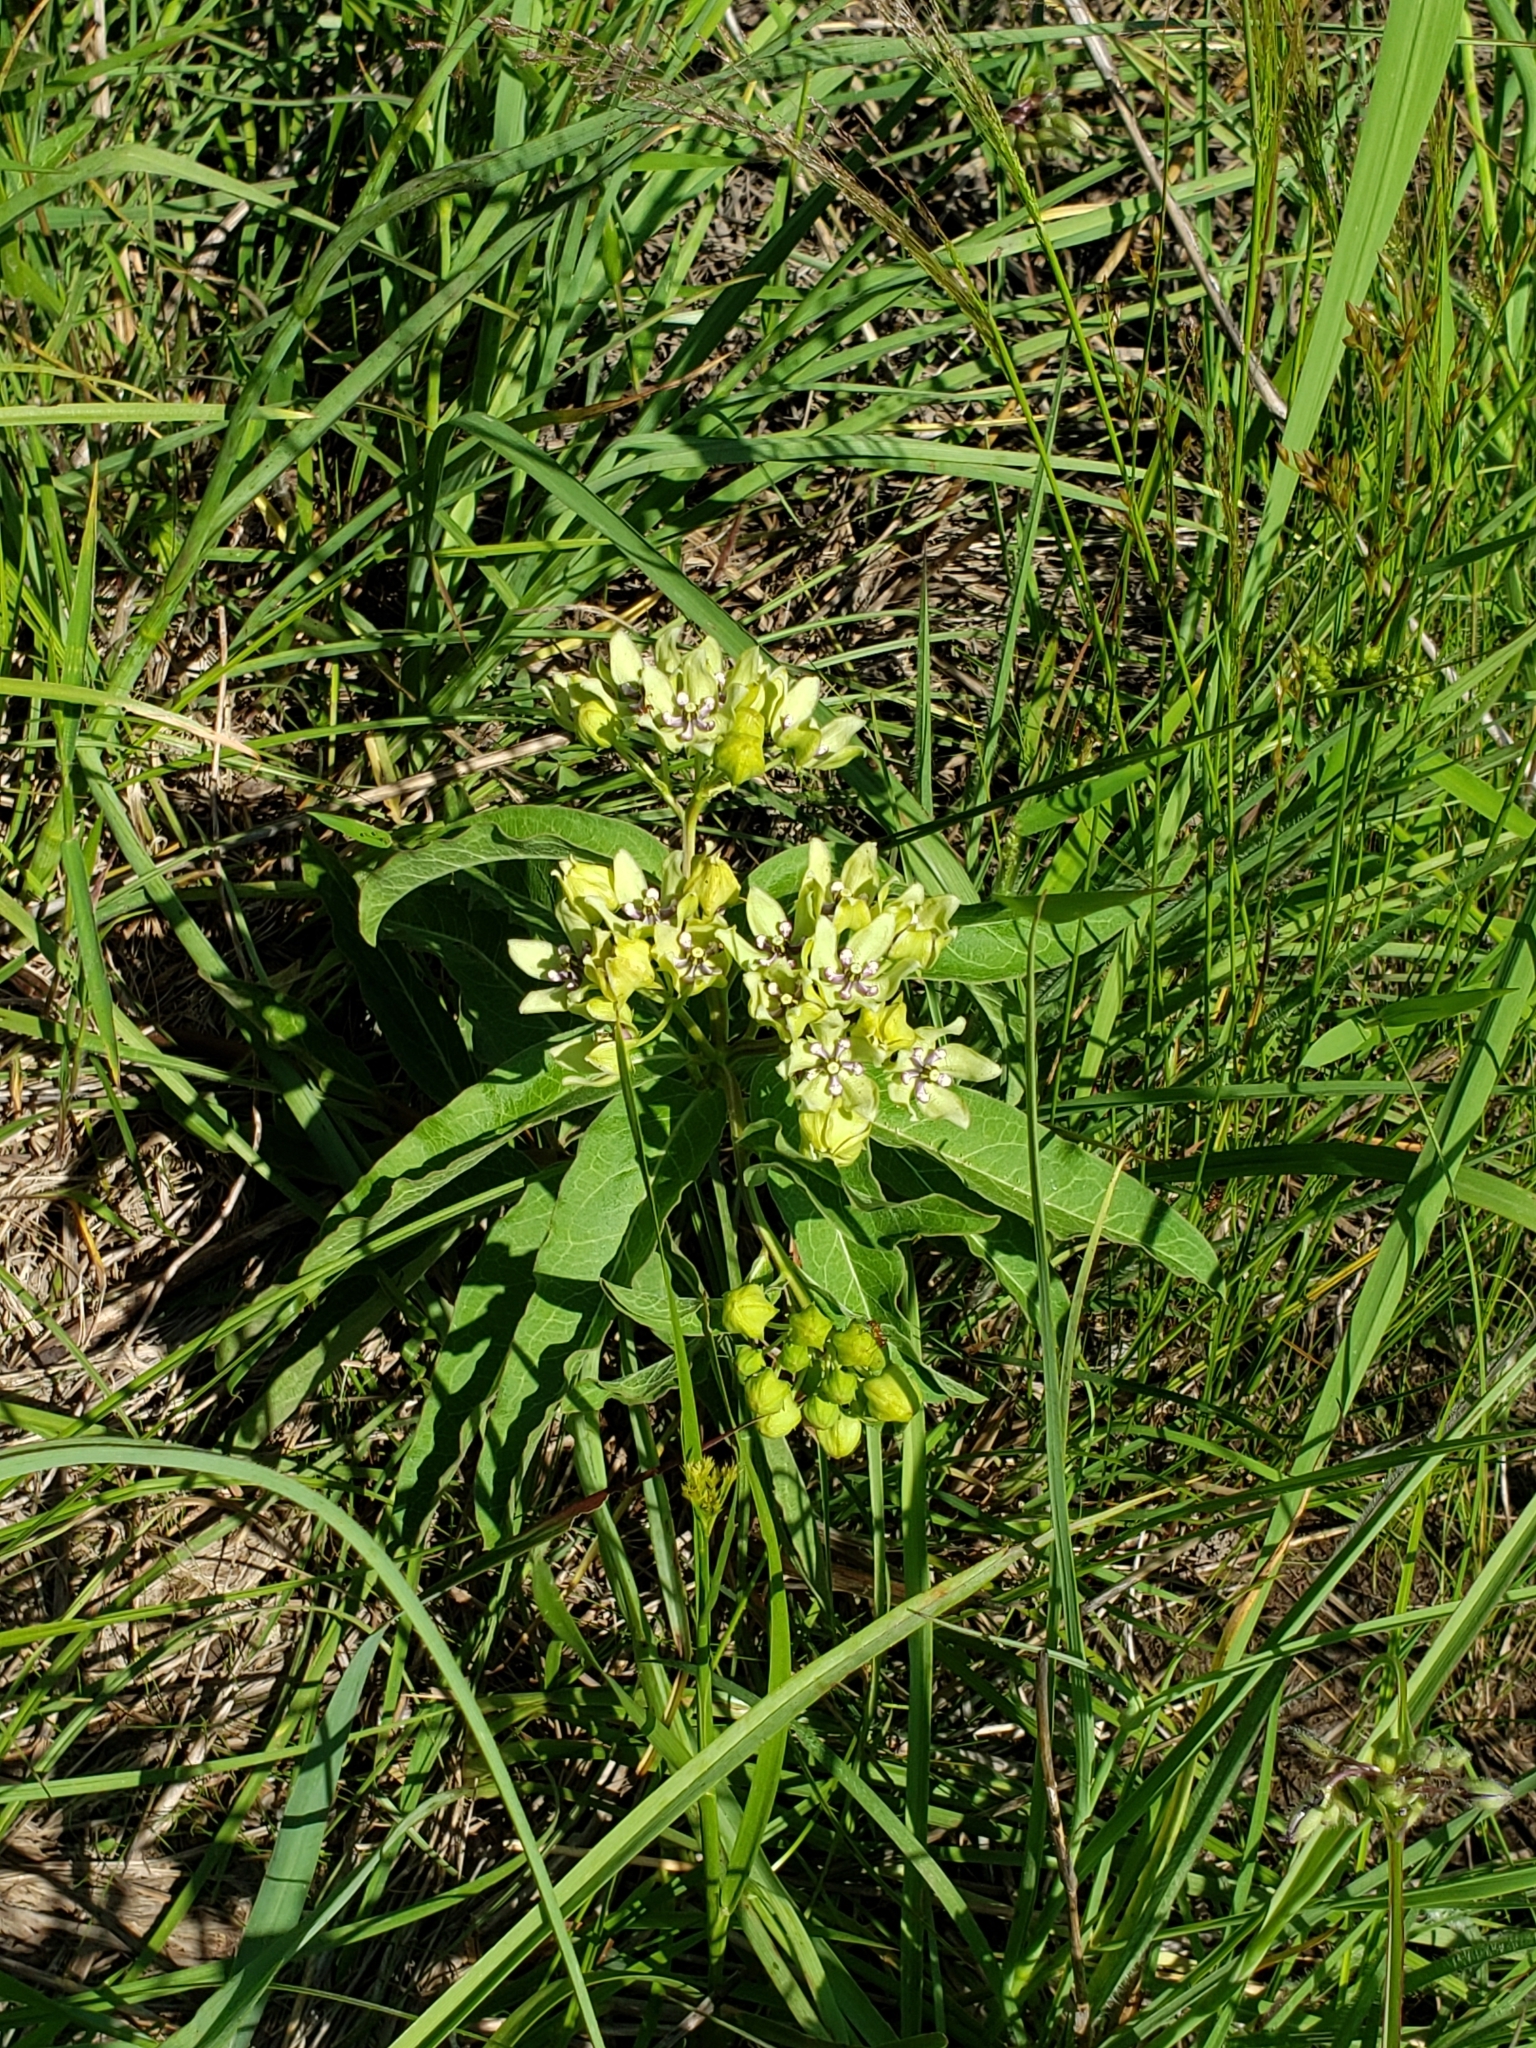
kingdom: Plantae
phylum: Tracheophyta
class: Magnoliopsida
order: Gentianales
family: Apocynaceae
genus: Asclepias
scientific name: Asclepias viridis
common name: Antelope-horns
